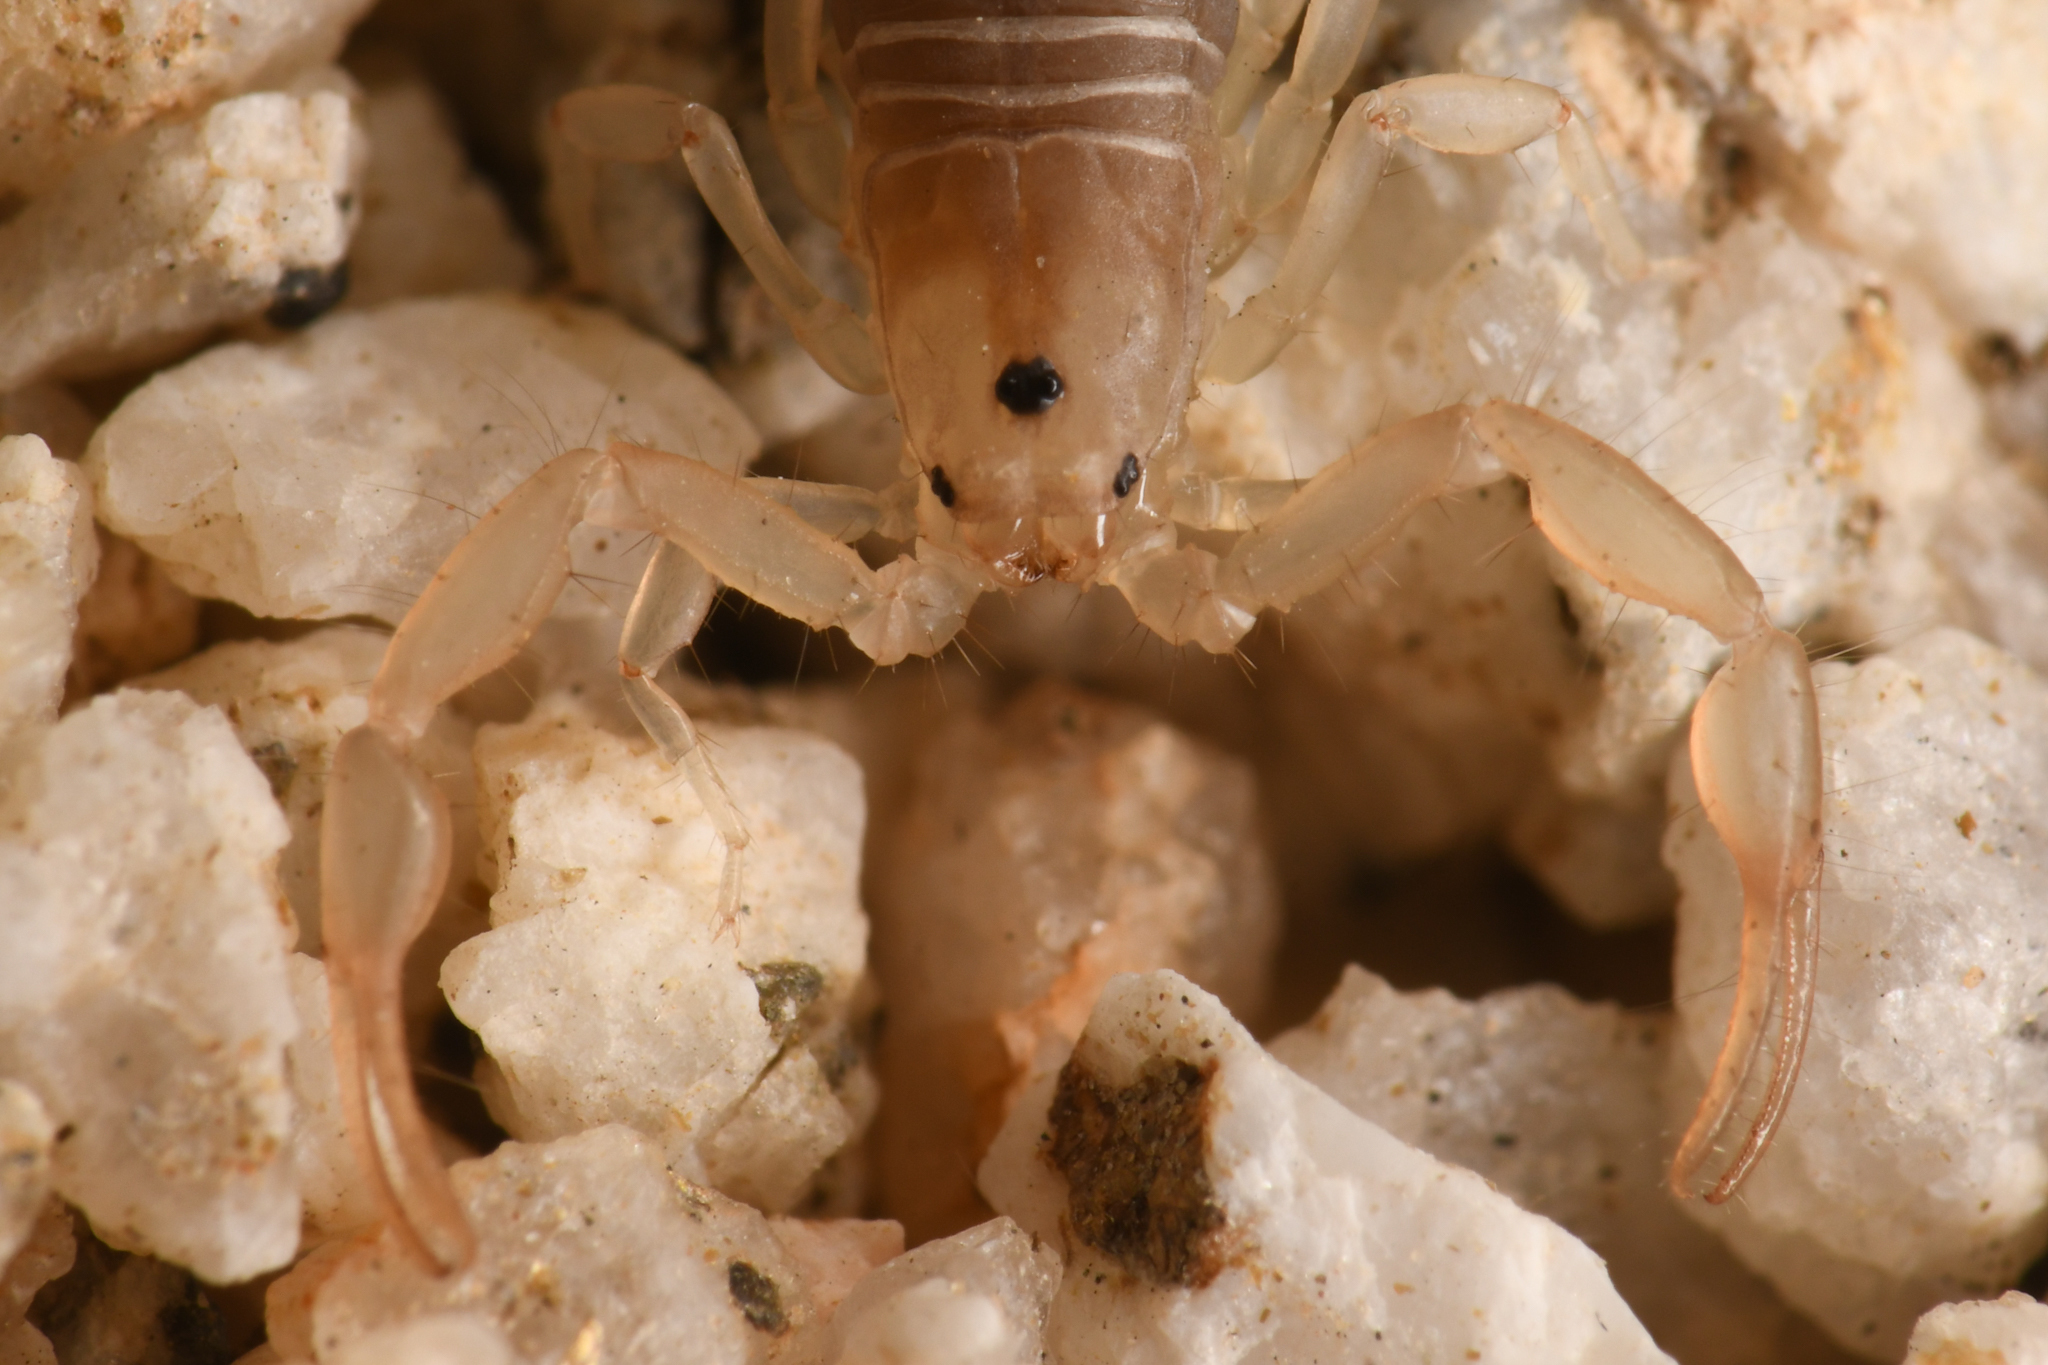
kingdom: Animalia
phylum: Arthropoda
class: Arachnida
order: Scorpiones
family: Vaejovidae
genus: Serradigitus
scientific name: Serradigitus joshuaensis
